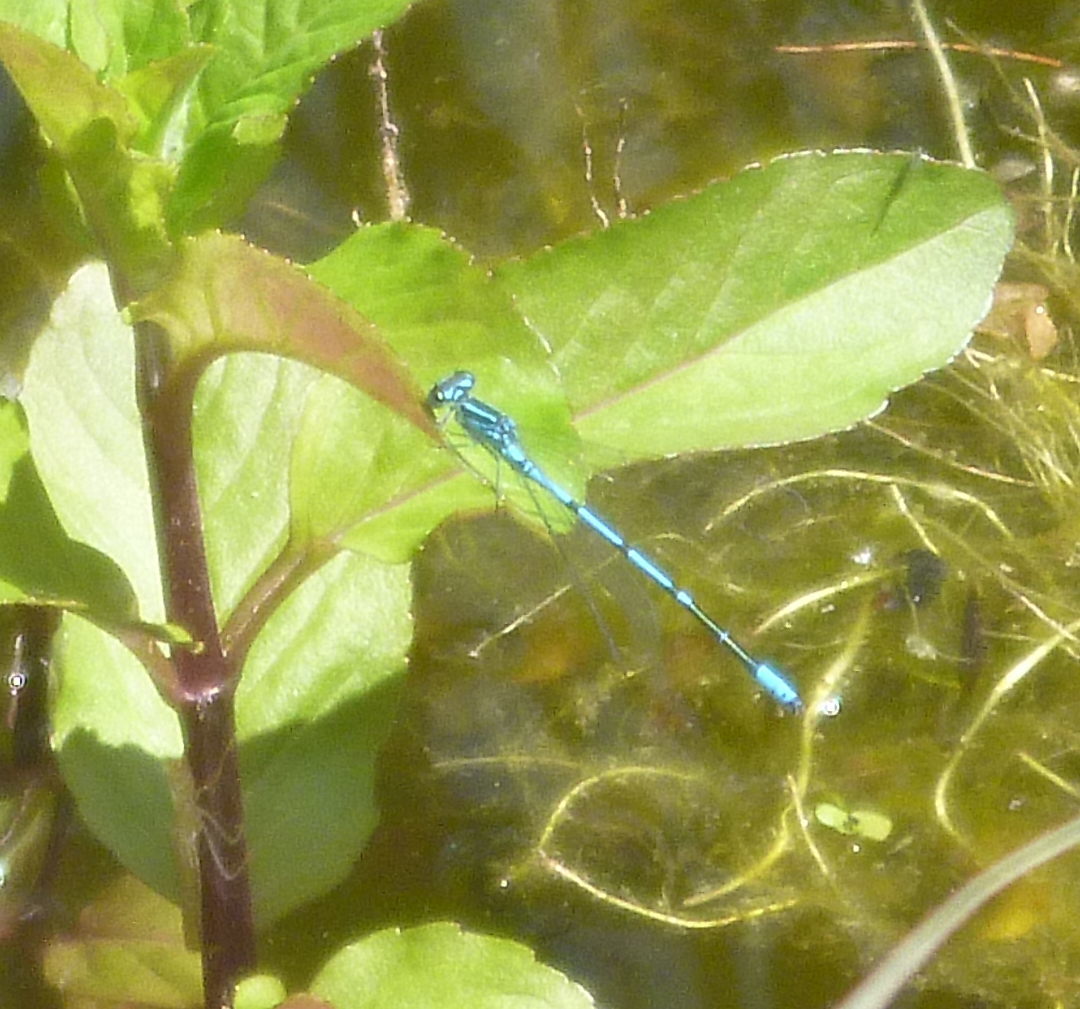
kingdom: Animalia
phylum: Arthropoda
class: Insecta
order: Odonata
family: Coenagrionidae
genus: Coenagrion
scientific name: Coenagrion puella
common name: Azure damselfly
